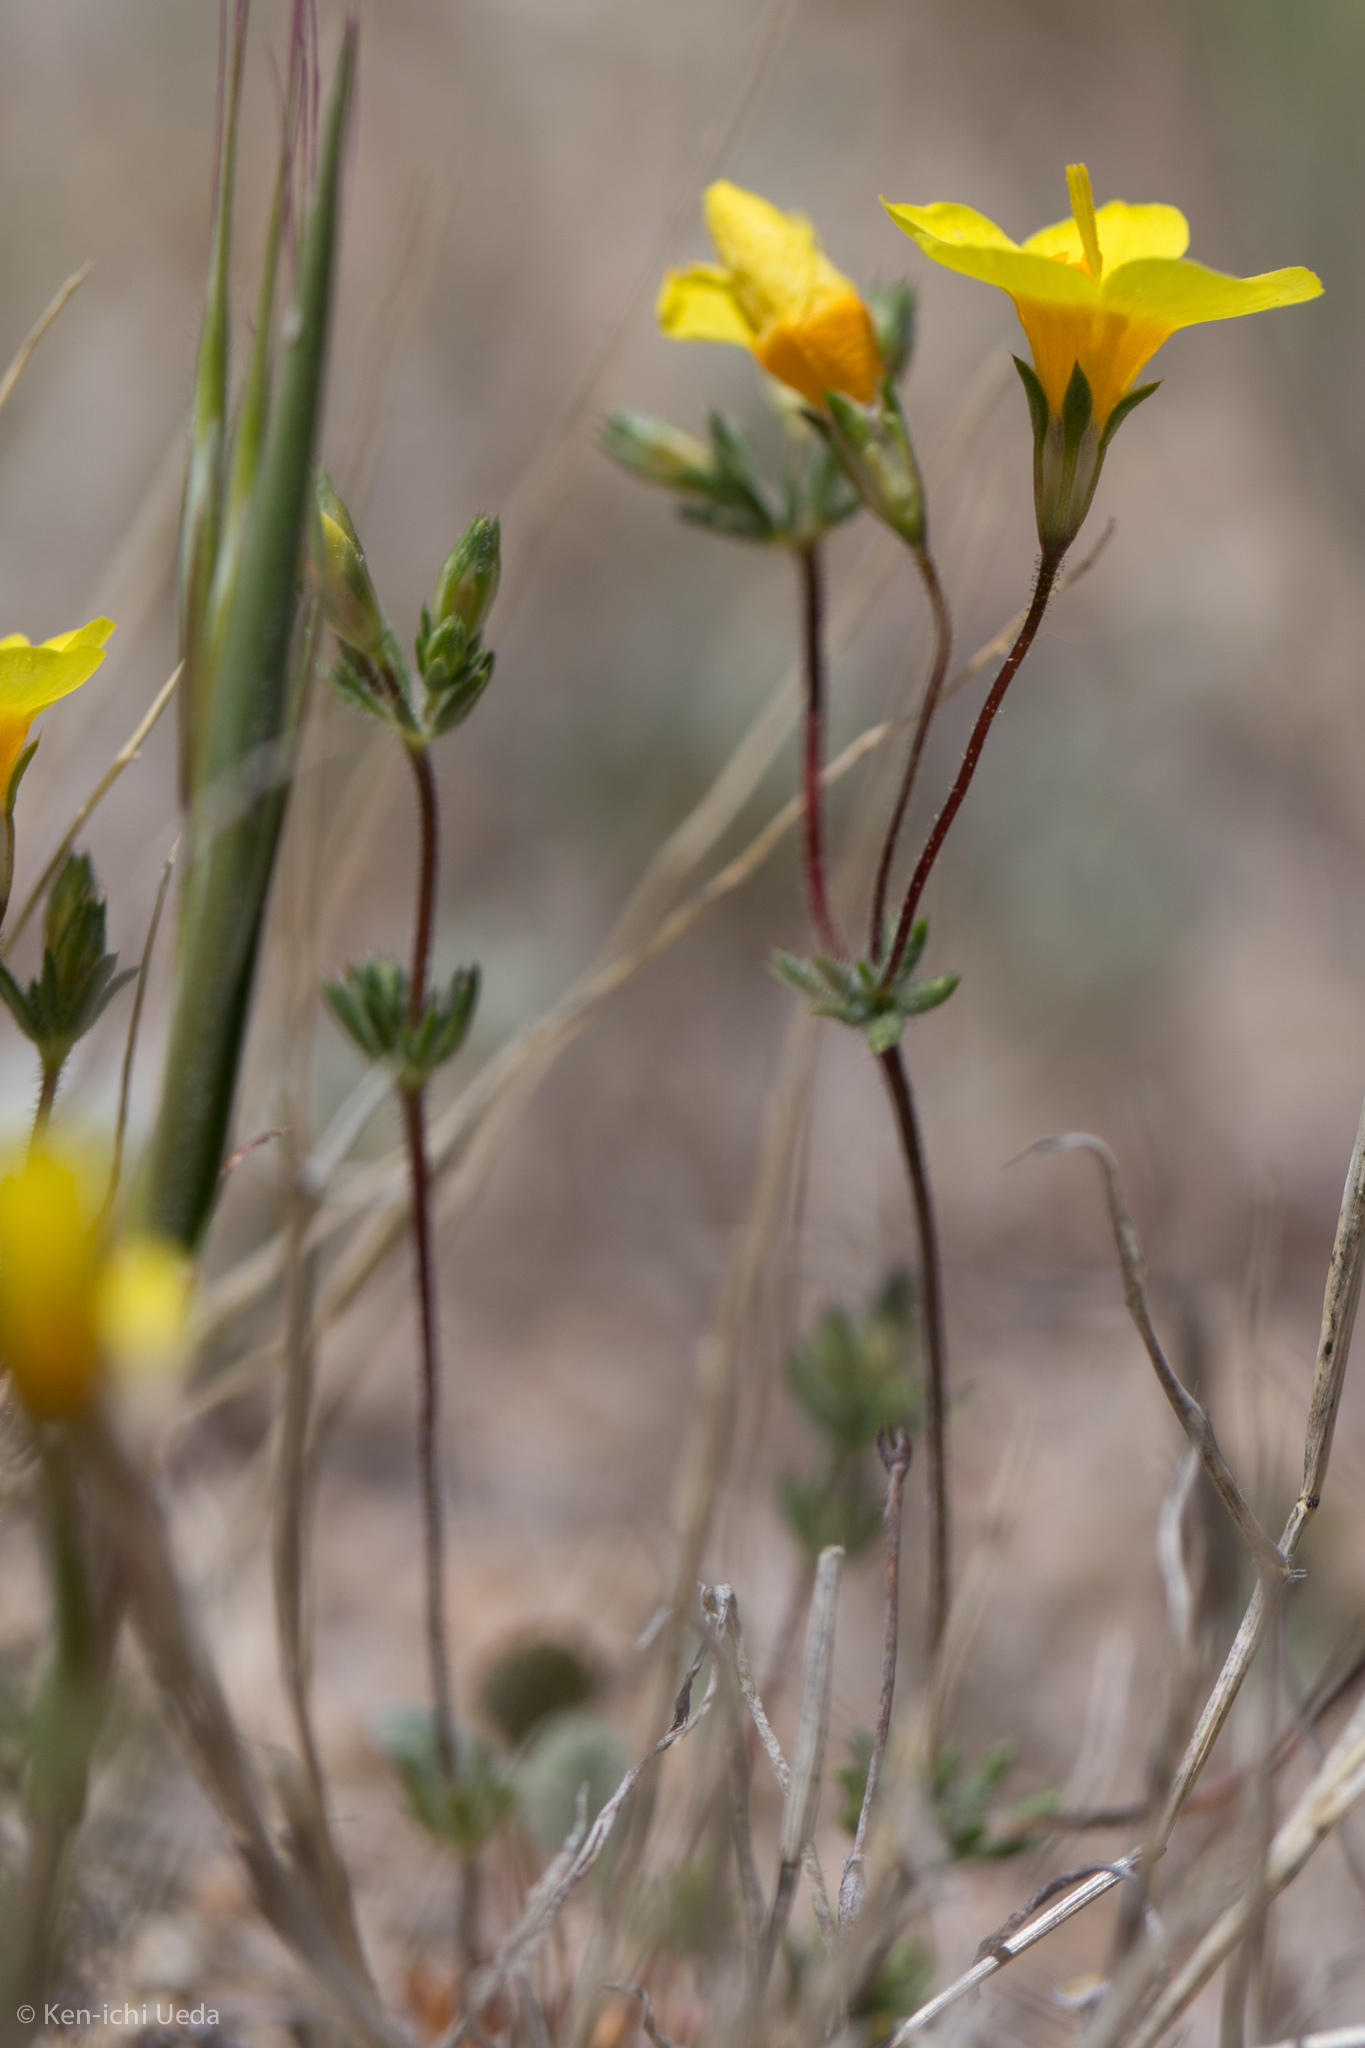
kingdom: Plantae
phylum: Tracheophyta
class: Magnoliopsida
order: Ericales
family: Polemoniaceae
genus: Leptosiphon
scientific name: Leptosiphon chrysanthus
